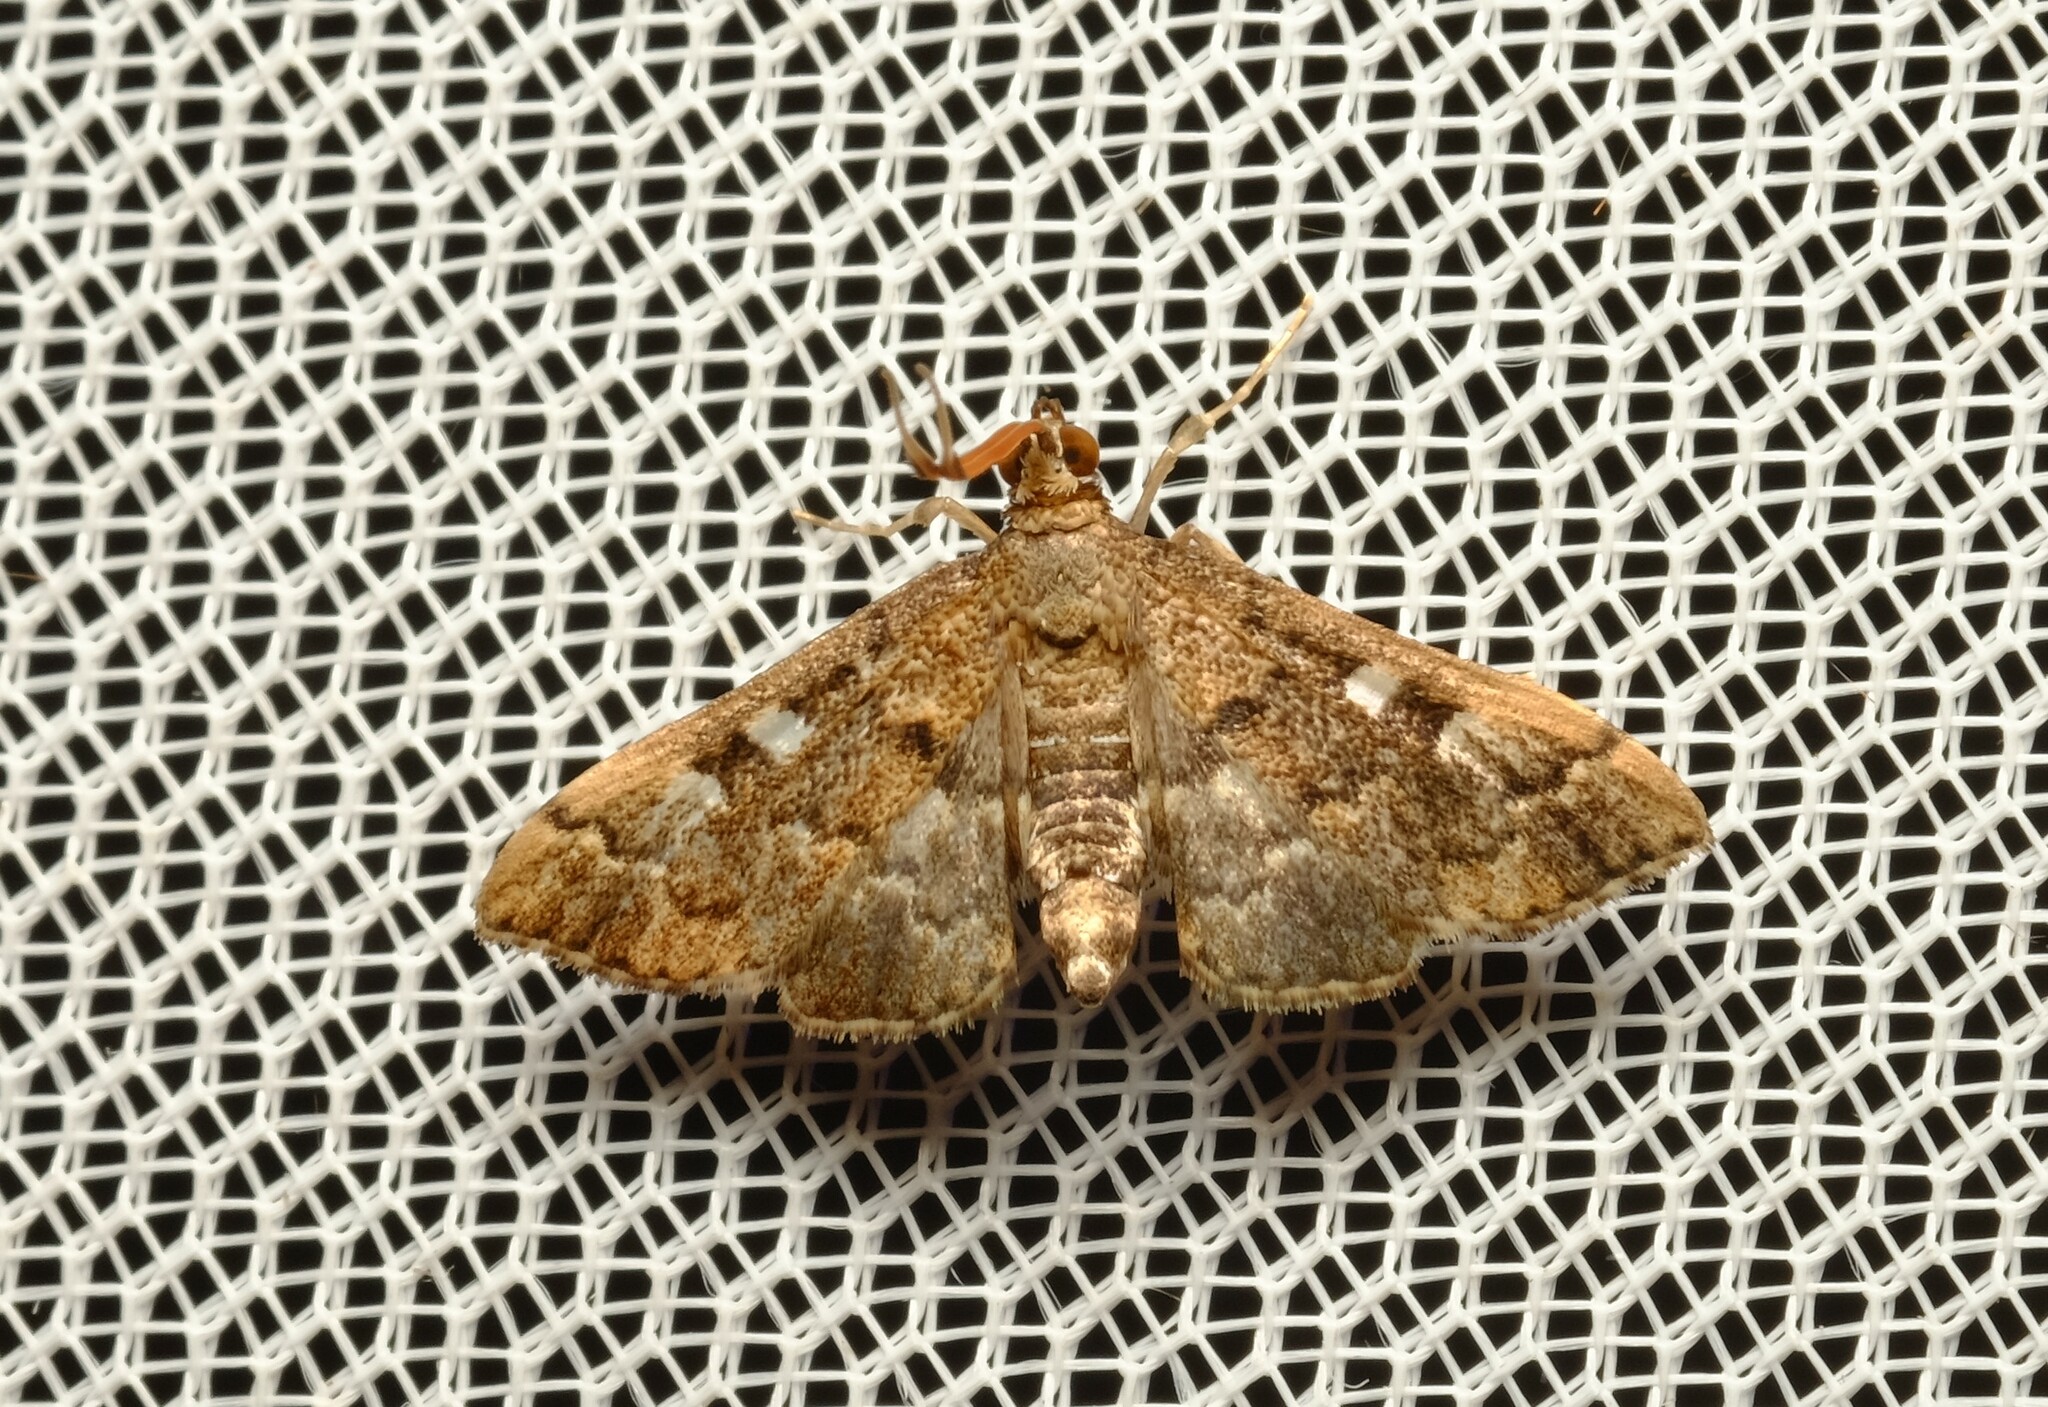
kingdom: Animalia
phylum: Arthropoda
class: Insecta
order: Lepidoptera
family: Crambidae
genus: Nacoleia
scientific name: Nacoleia rhoeoalis
